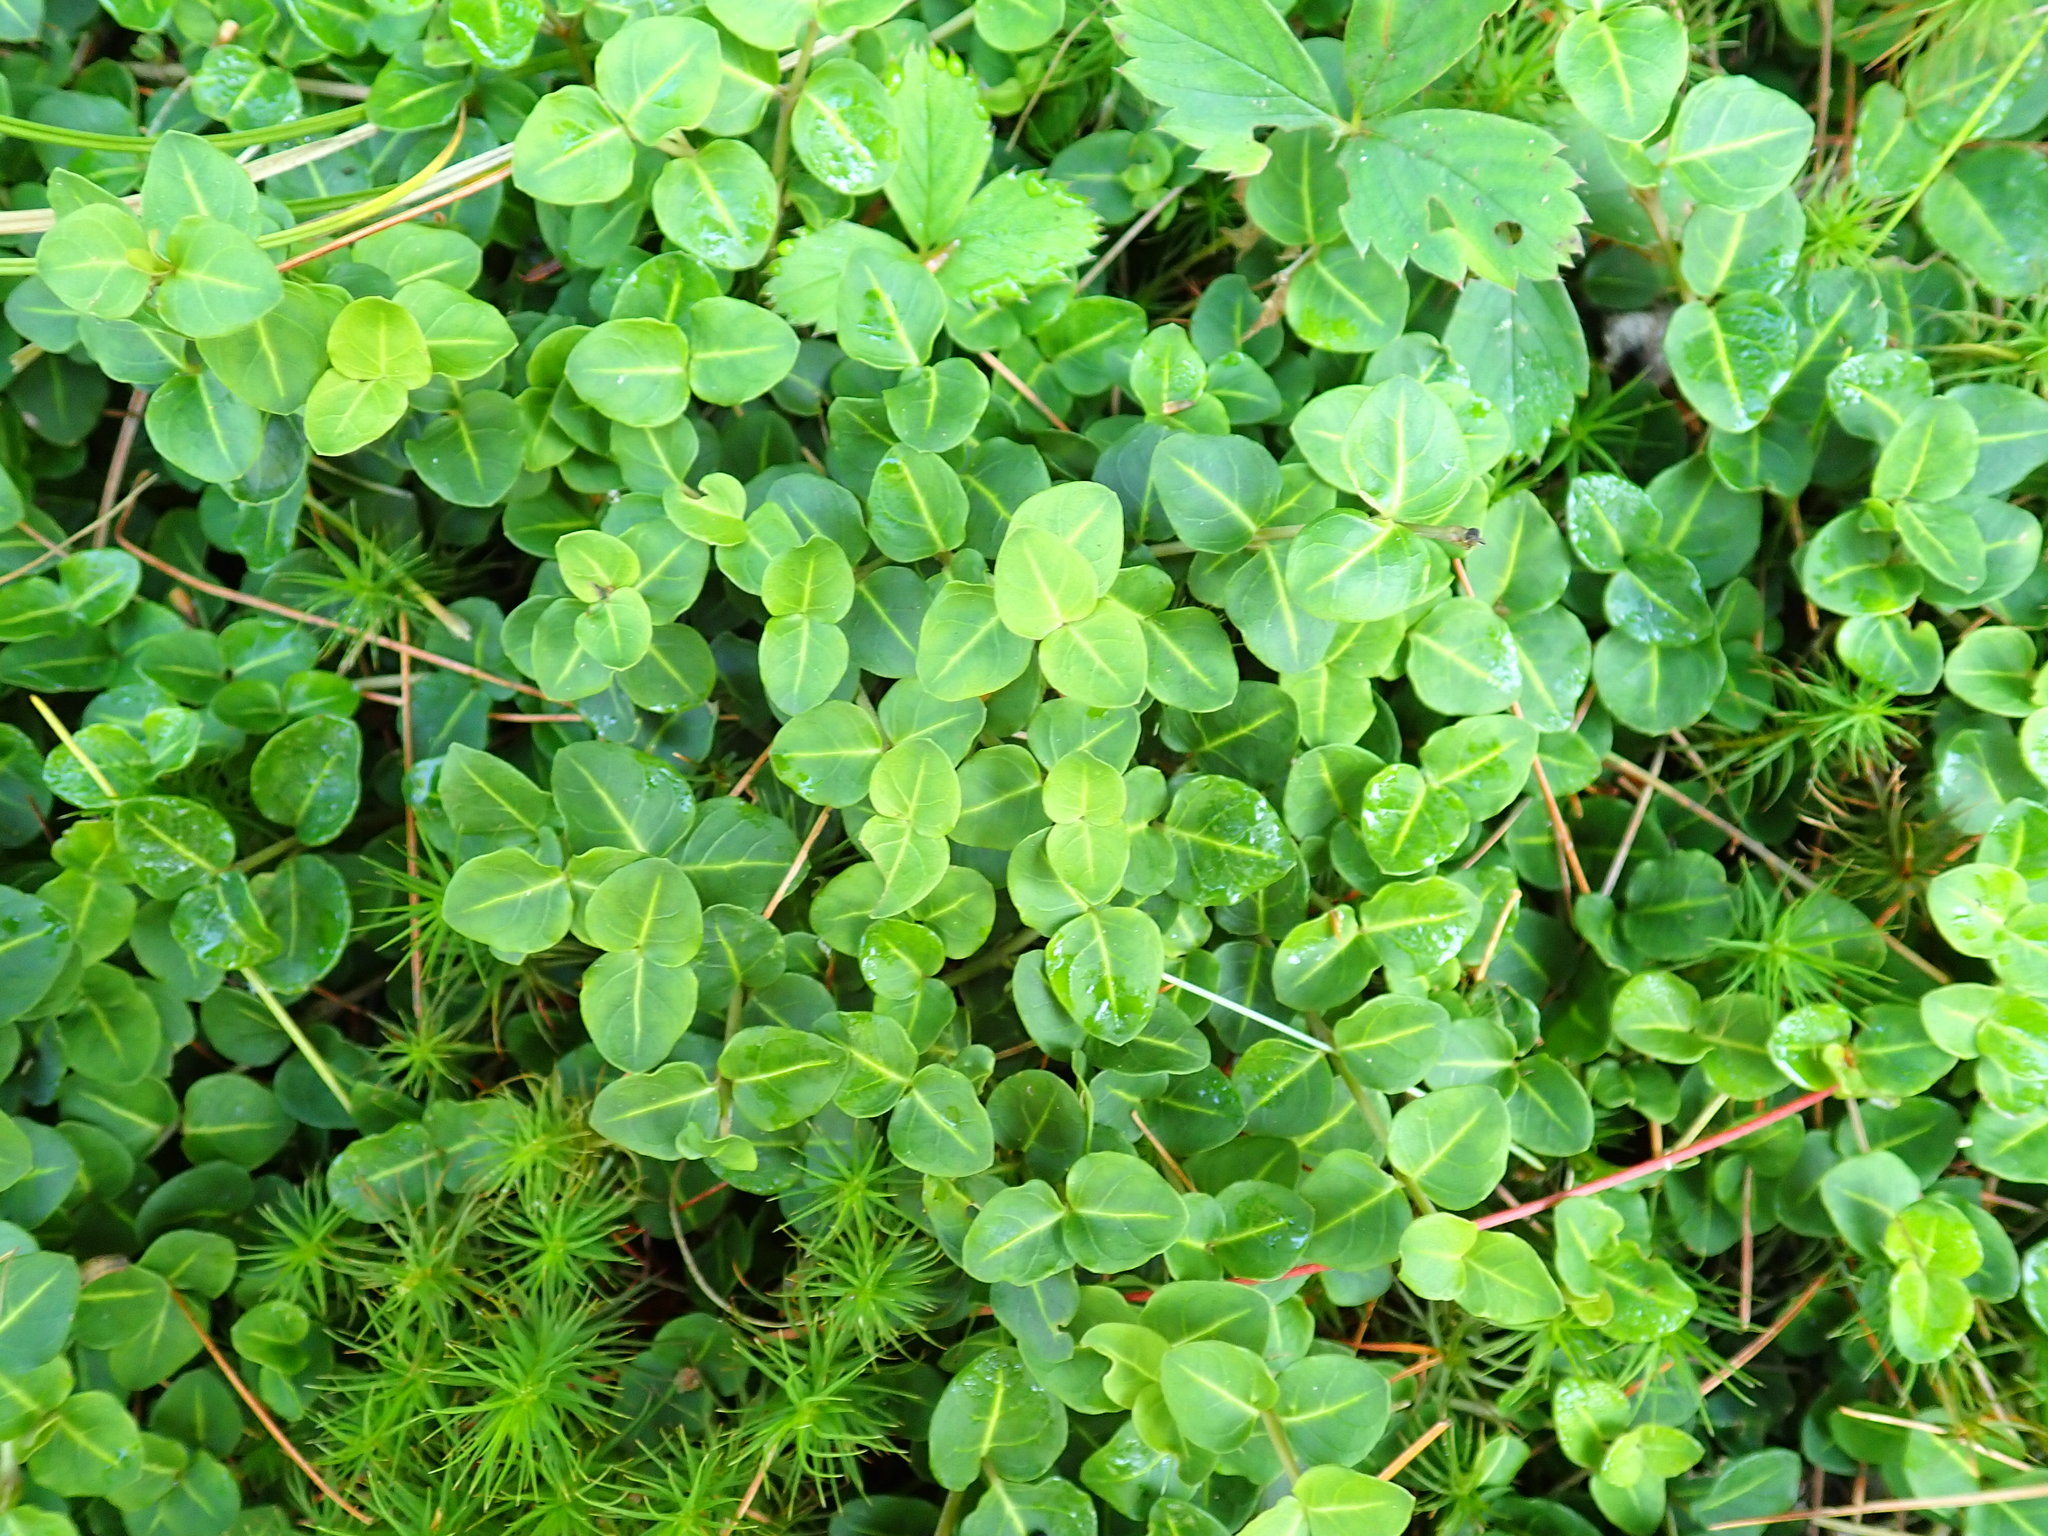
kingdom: Plantae
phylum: Tracheophyta
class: Magnoliopsida
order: Gentianales
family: Rubiaceae
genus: Mitchella
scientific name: Mitchella repens
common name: Partridge-berry
